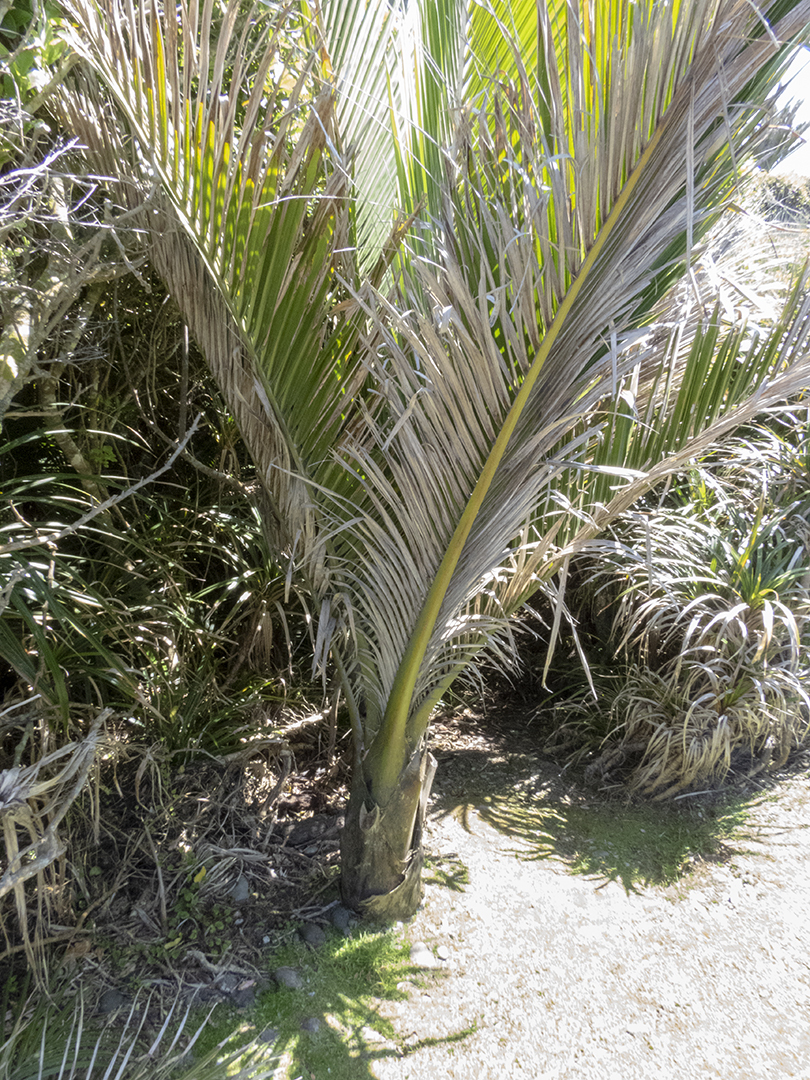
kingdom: Plantae
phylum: Tracheophyta
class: Liliopsida
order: Arecales
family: Arecaceae
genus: Rhopalostylis
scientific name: Rhopalostylis sapida
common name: Feather-duster palm
